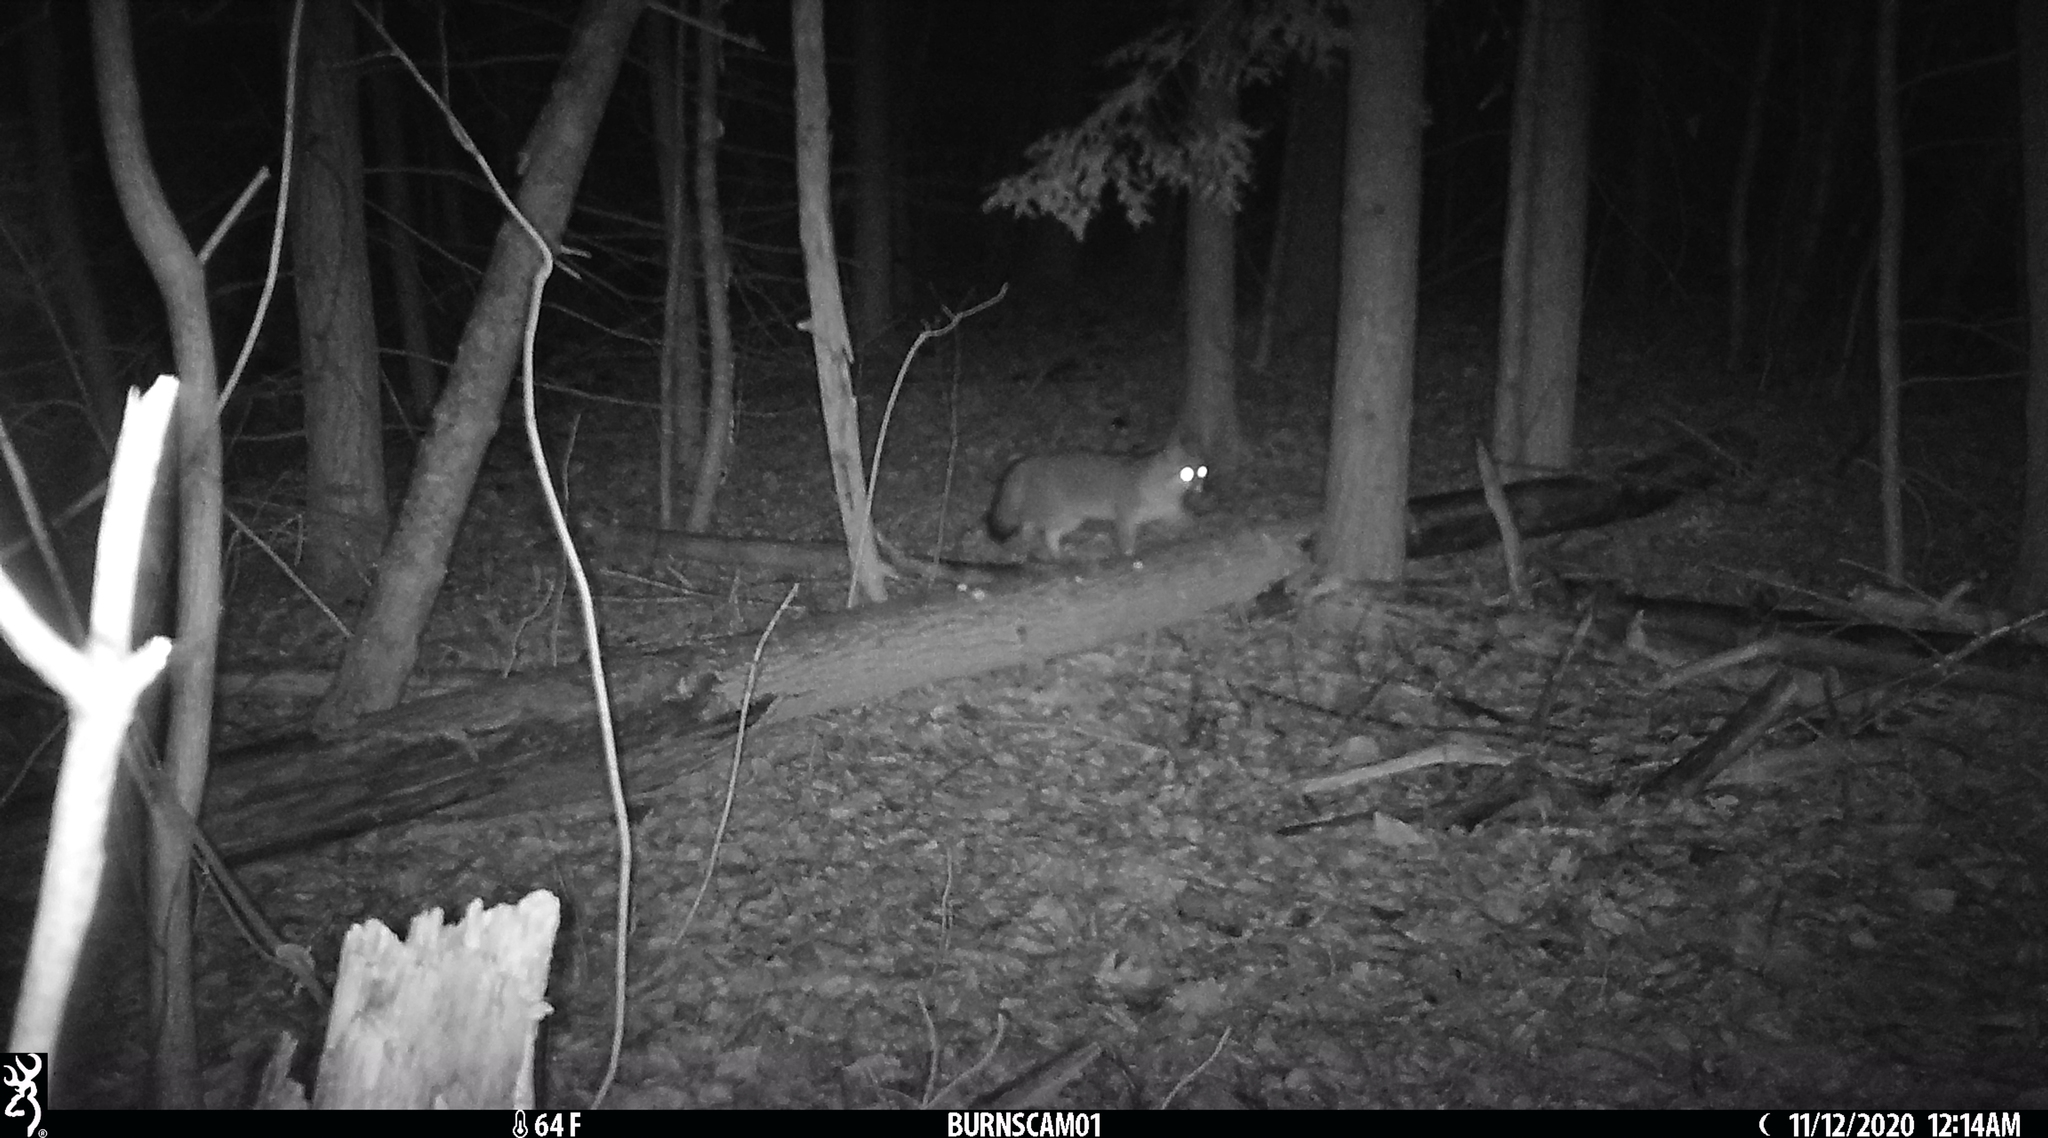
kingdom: Animalia
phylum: Chordata
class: Mammalia
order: Carnivora
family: Canidae
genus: Urocyon
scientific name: Urocyon cinereoargenteus
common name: Gray fox
